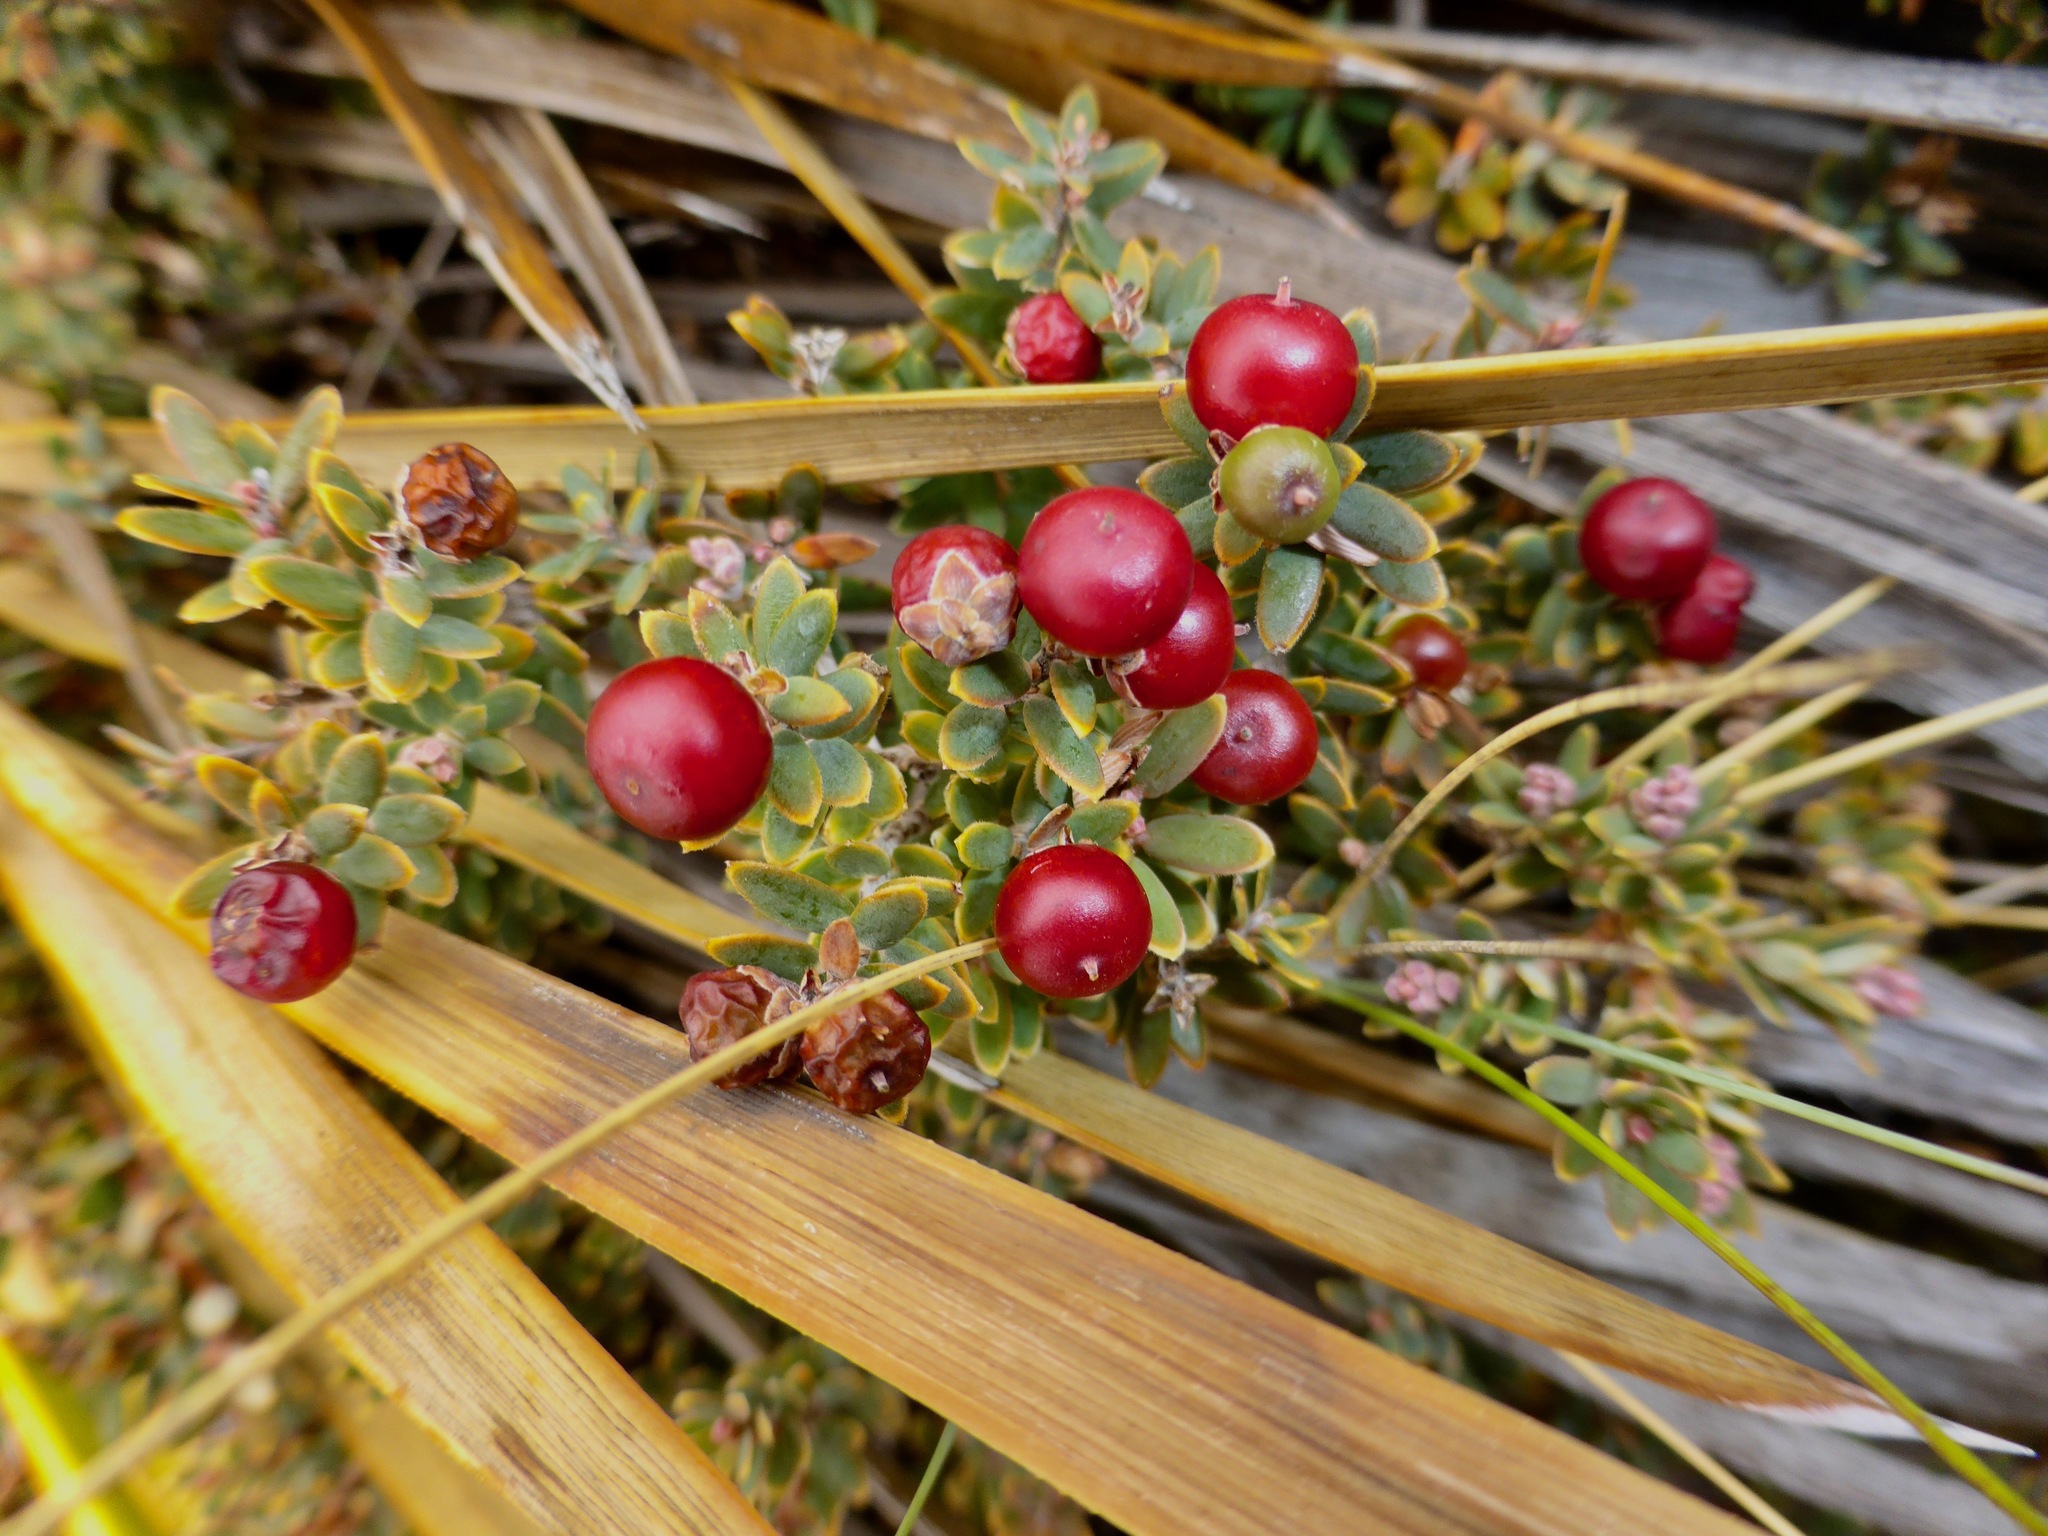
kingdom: Plantae
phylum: Tracheophyta
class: Magnoliopsida
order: Ericales
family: Ericaceae
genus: Acrothamnus
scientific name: Acrothamnus colensoi
